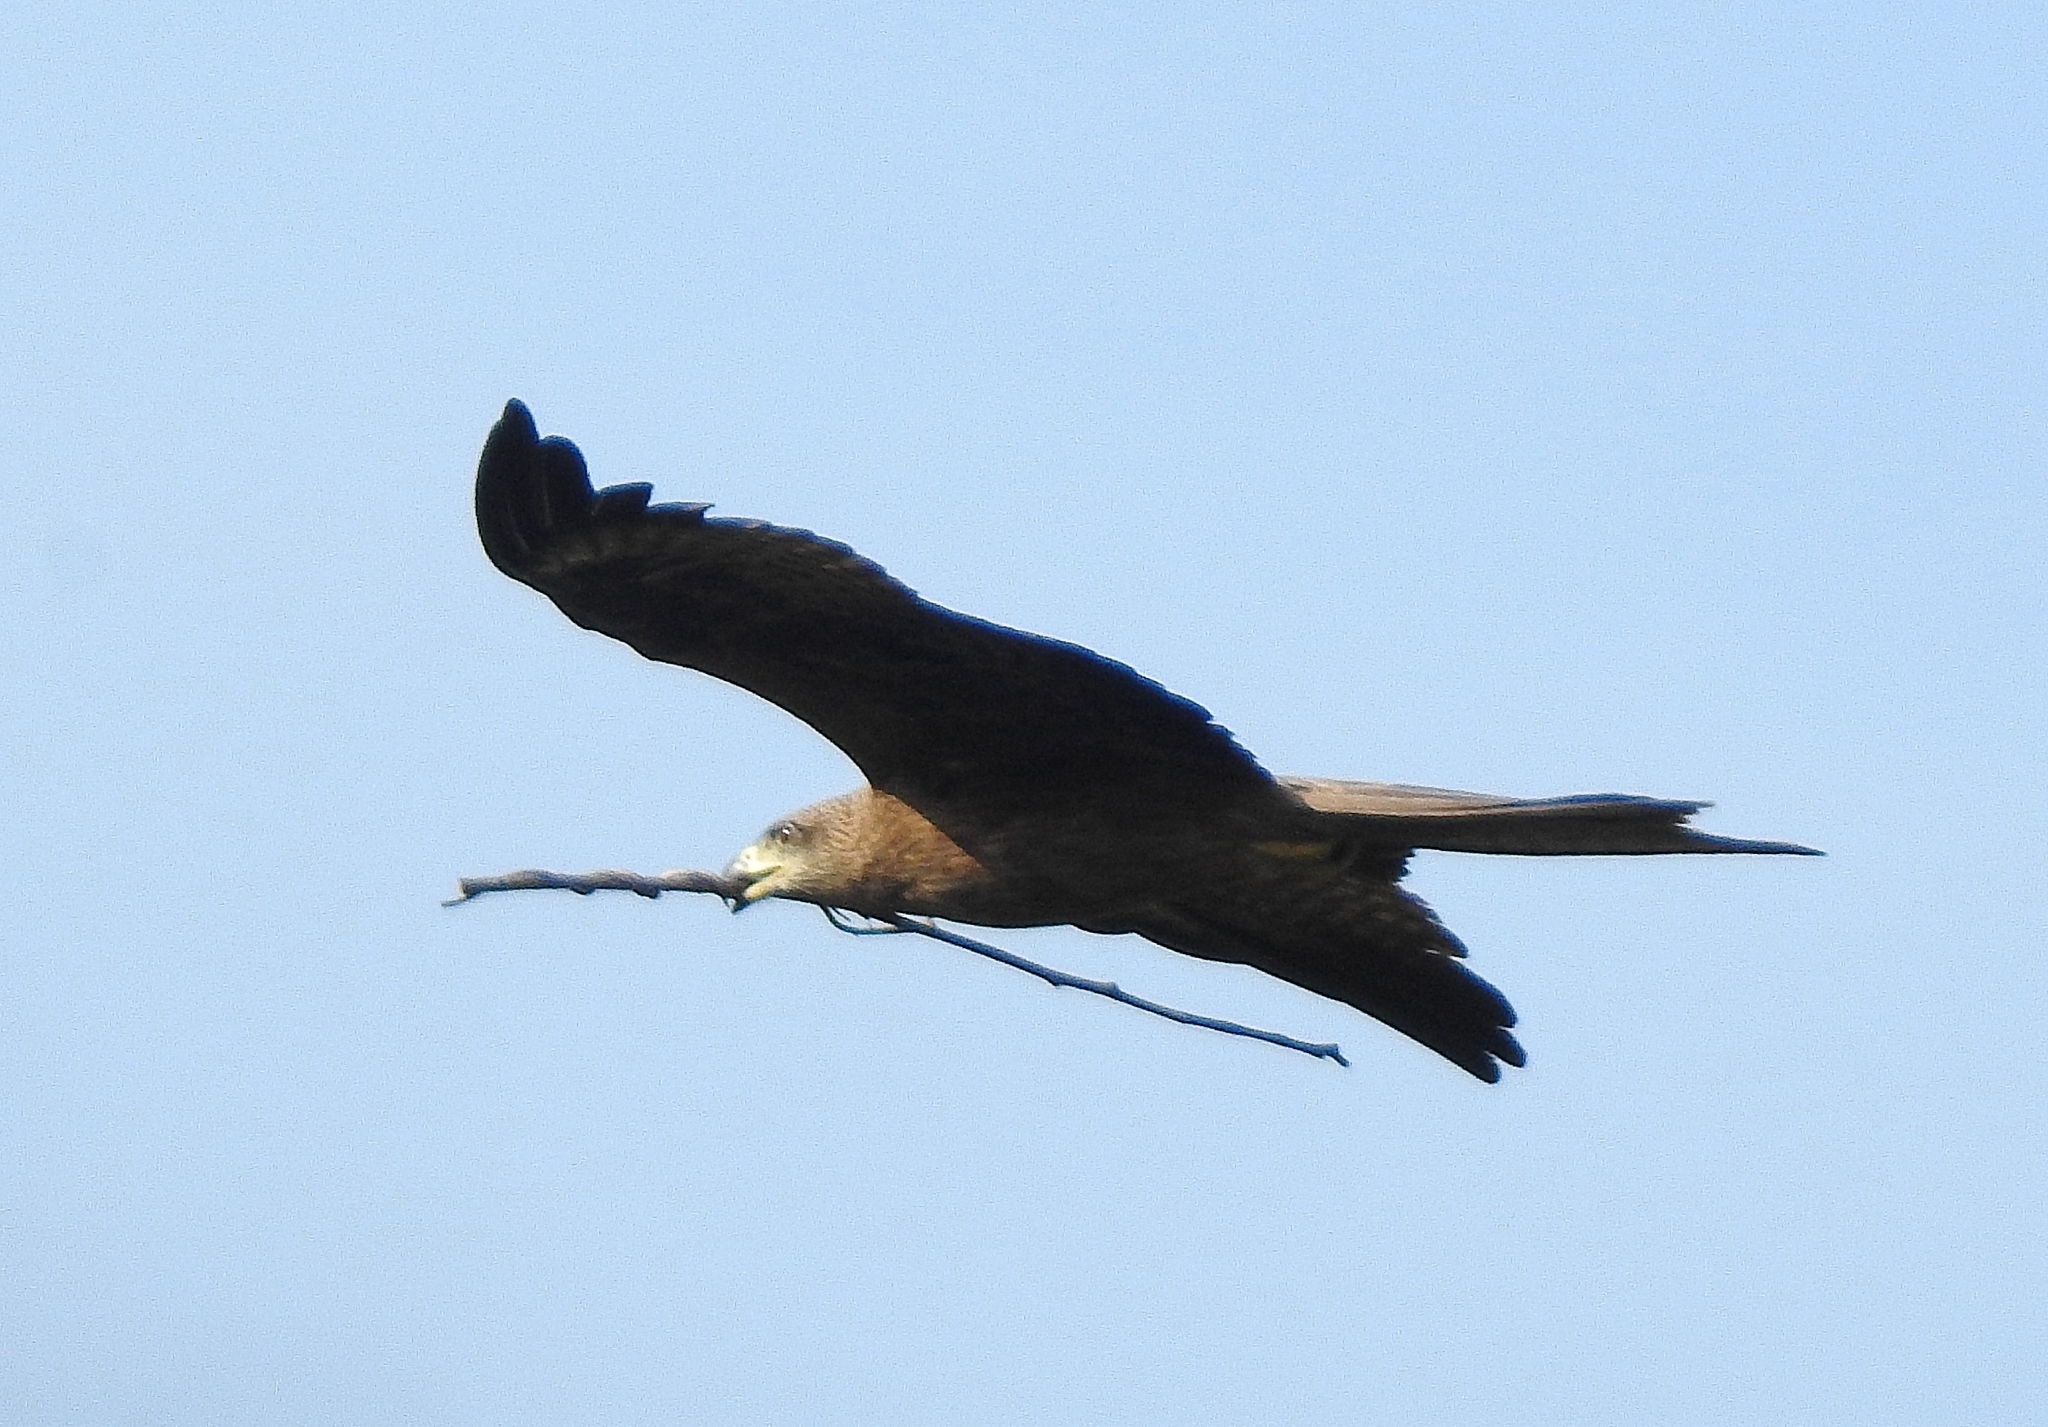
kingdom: Animalia
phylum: Chordata
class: Aves
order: Accipitriformes
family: Accipitridae
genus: Milvus
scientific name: Milvus migrans
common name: Black kite
